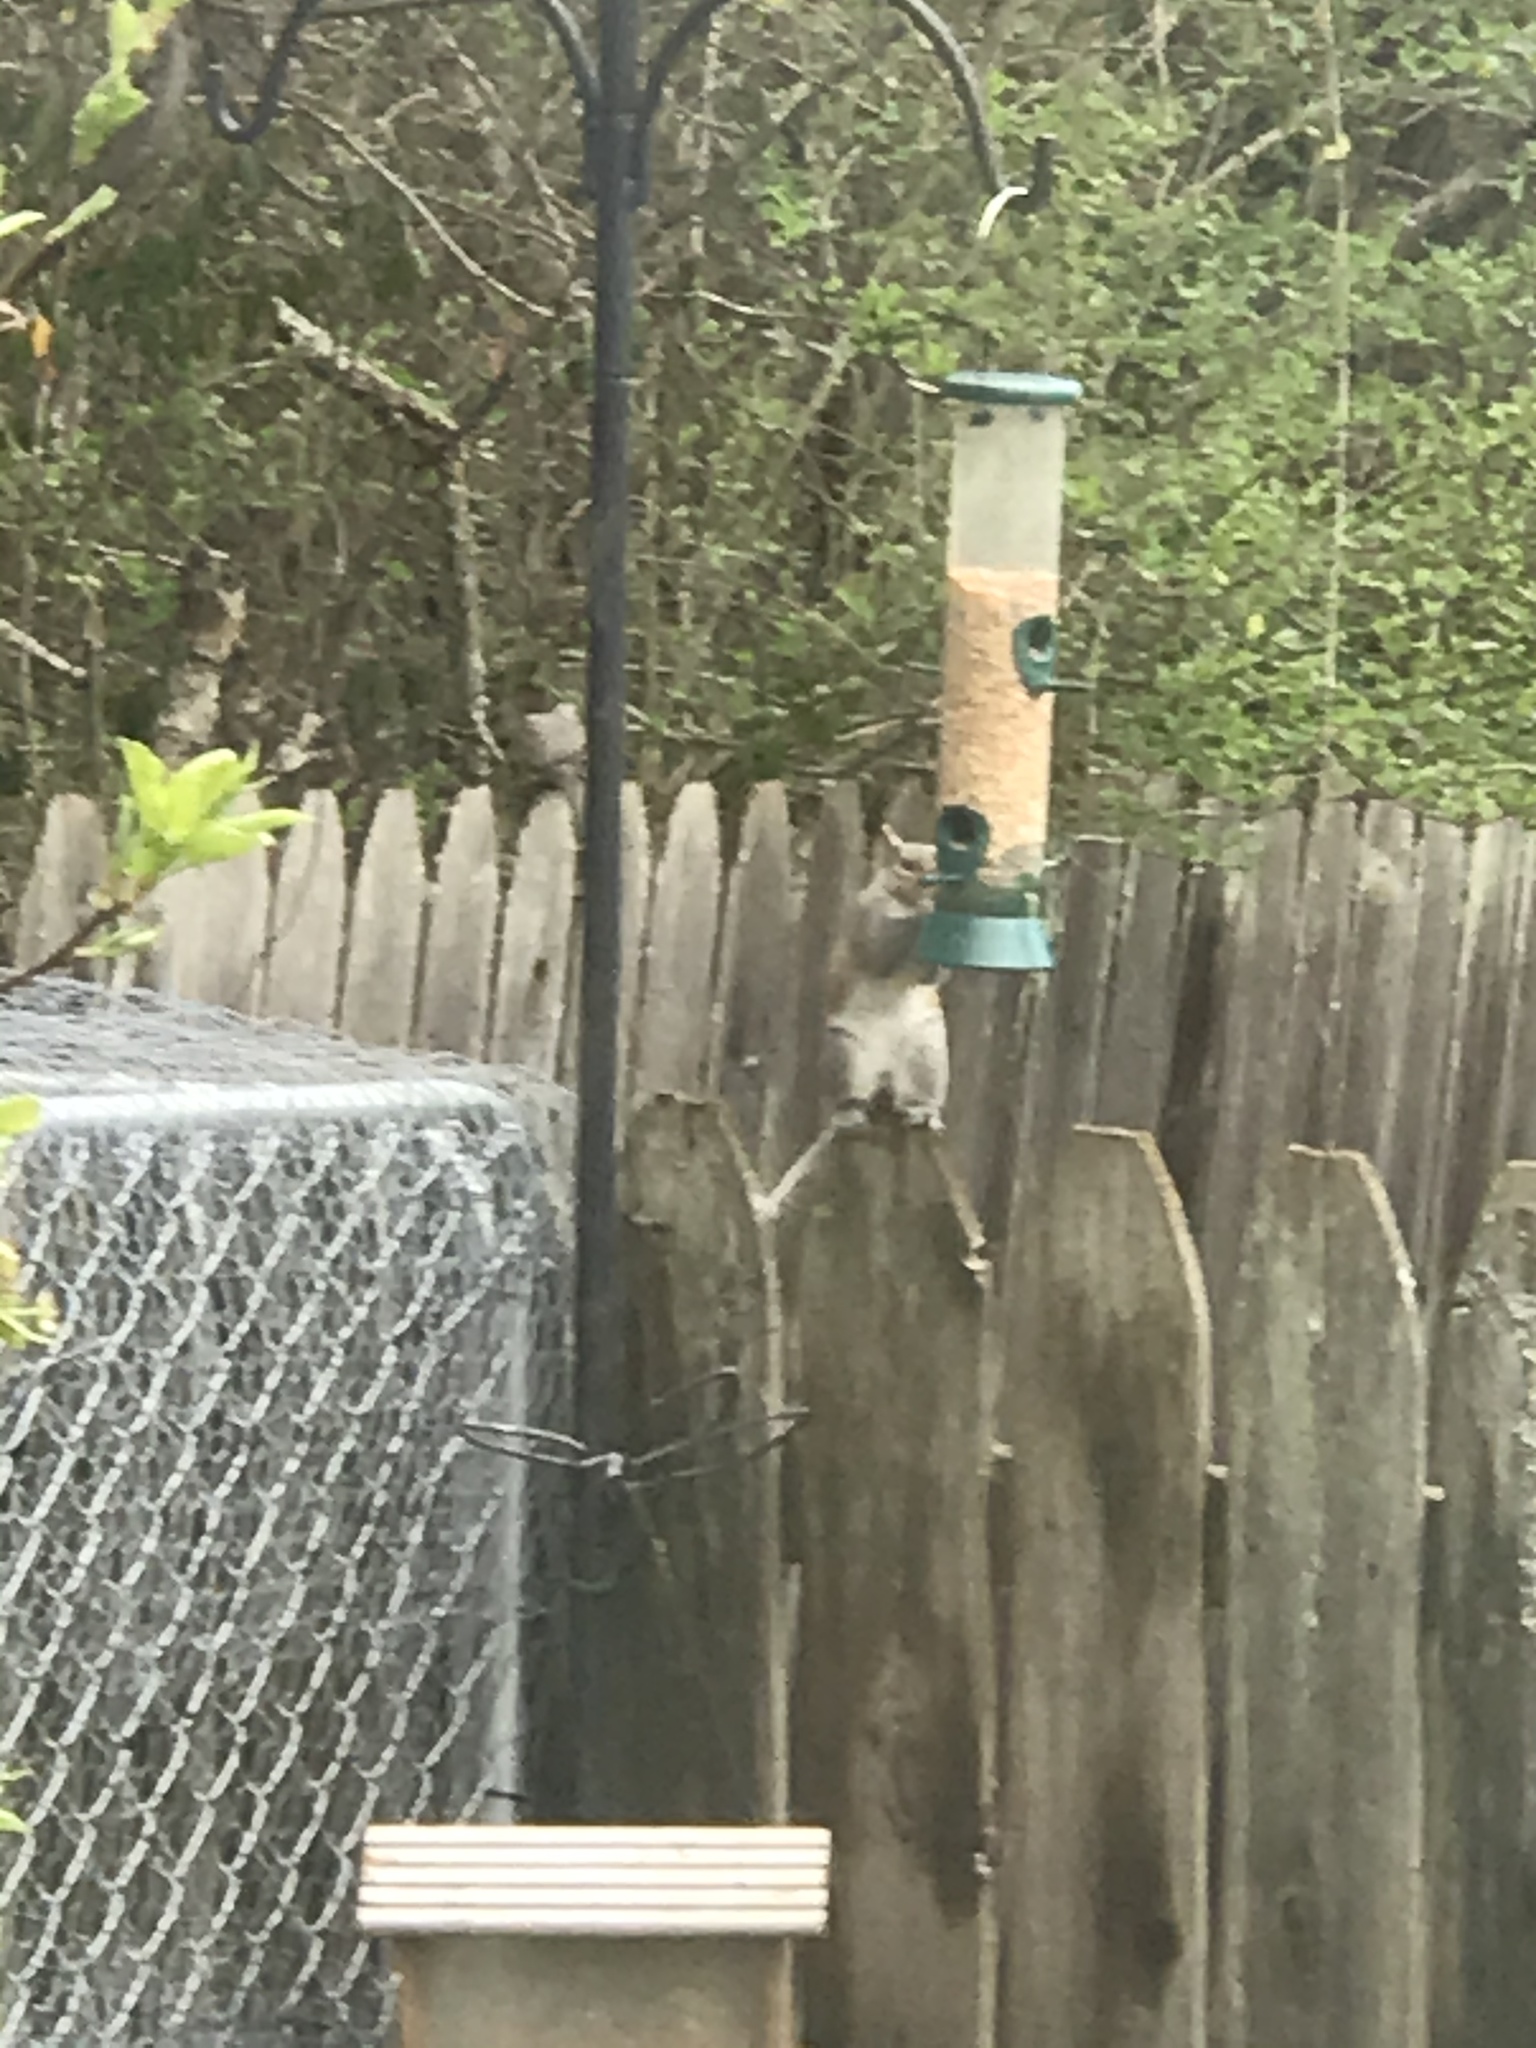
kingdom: Animalia
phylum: Chordata
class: Mammalia
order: Rodentia
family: Sciuridae
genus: Sciurus
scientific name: Sciurus carolinensis
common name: Eastern gray squirrel
